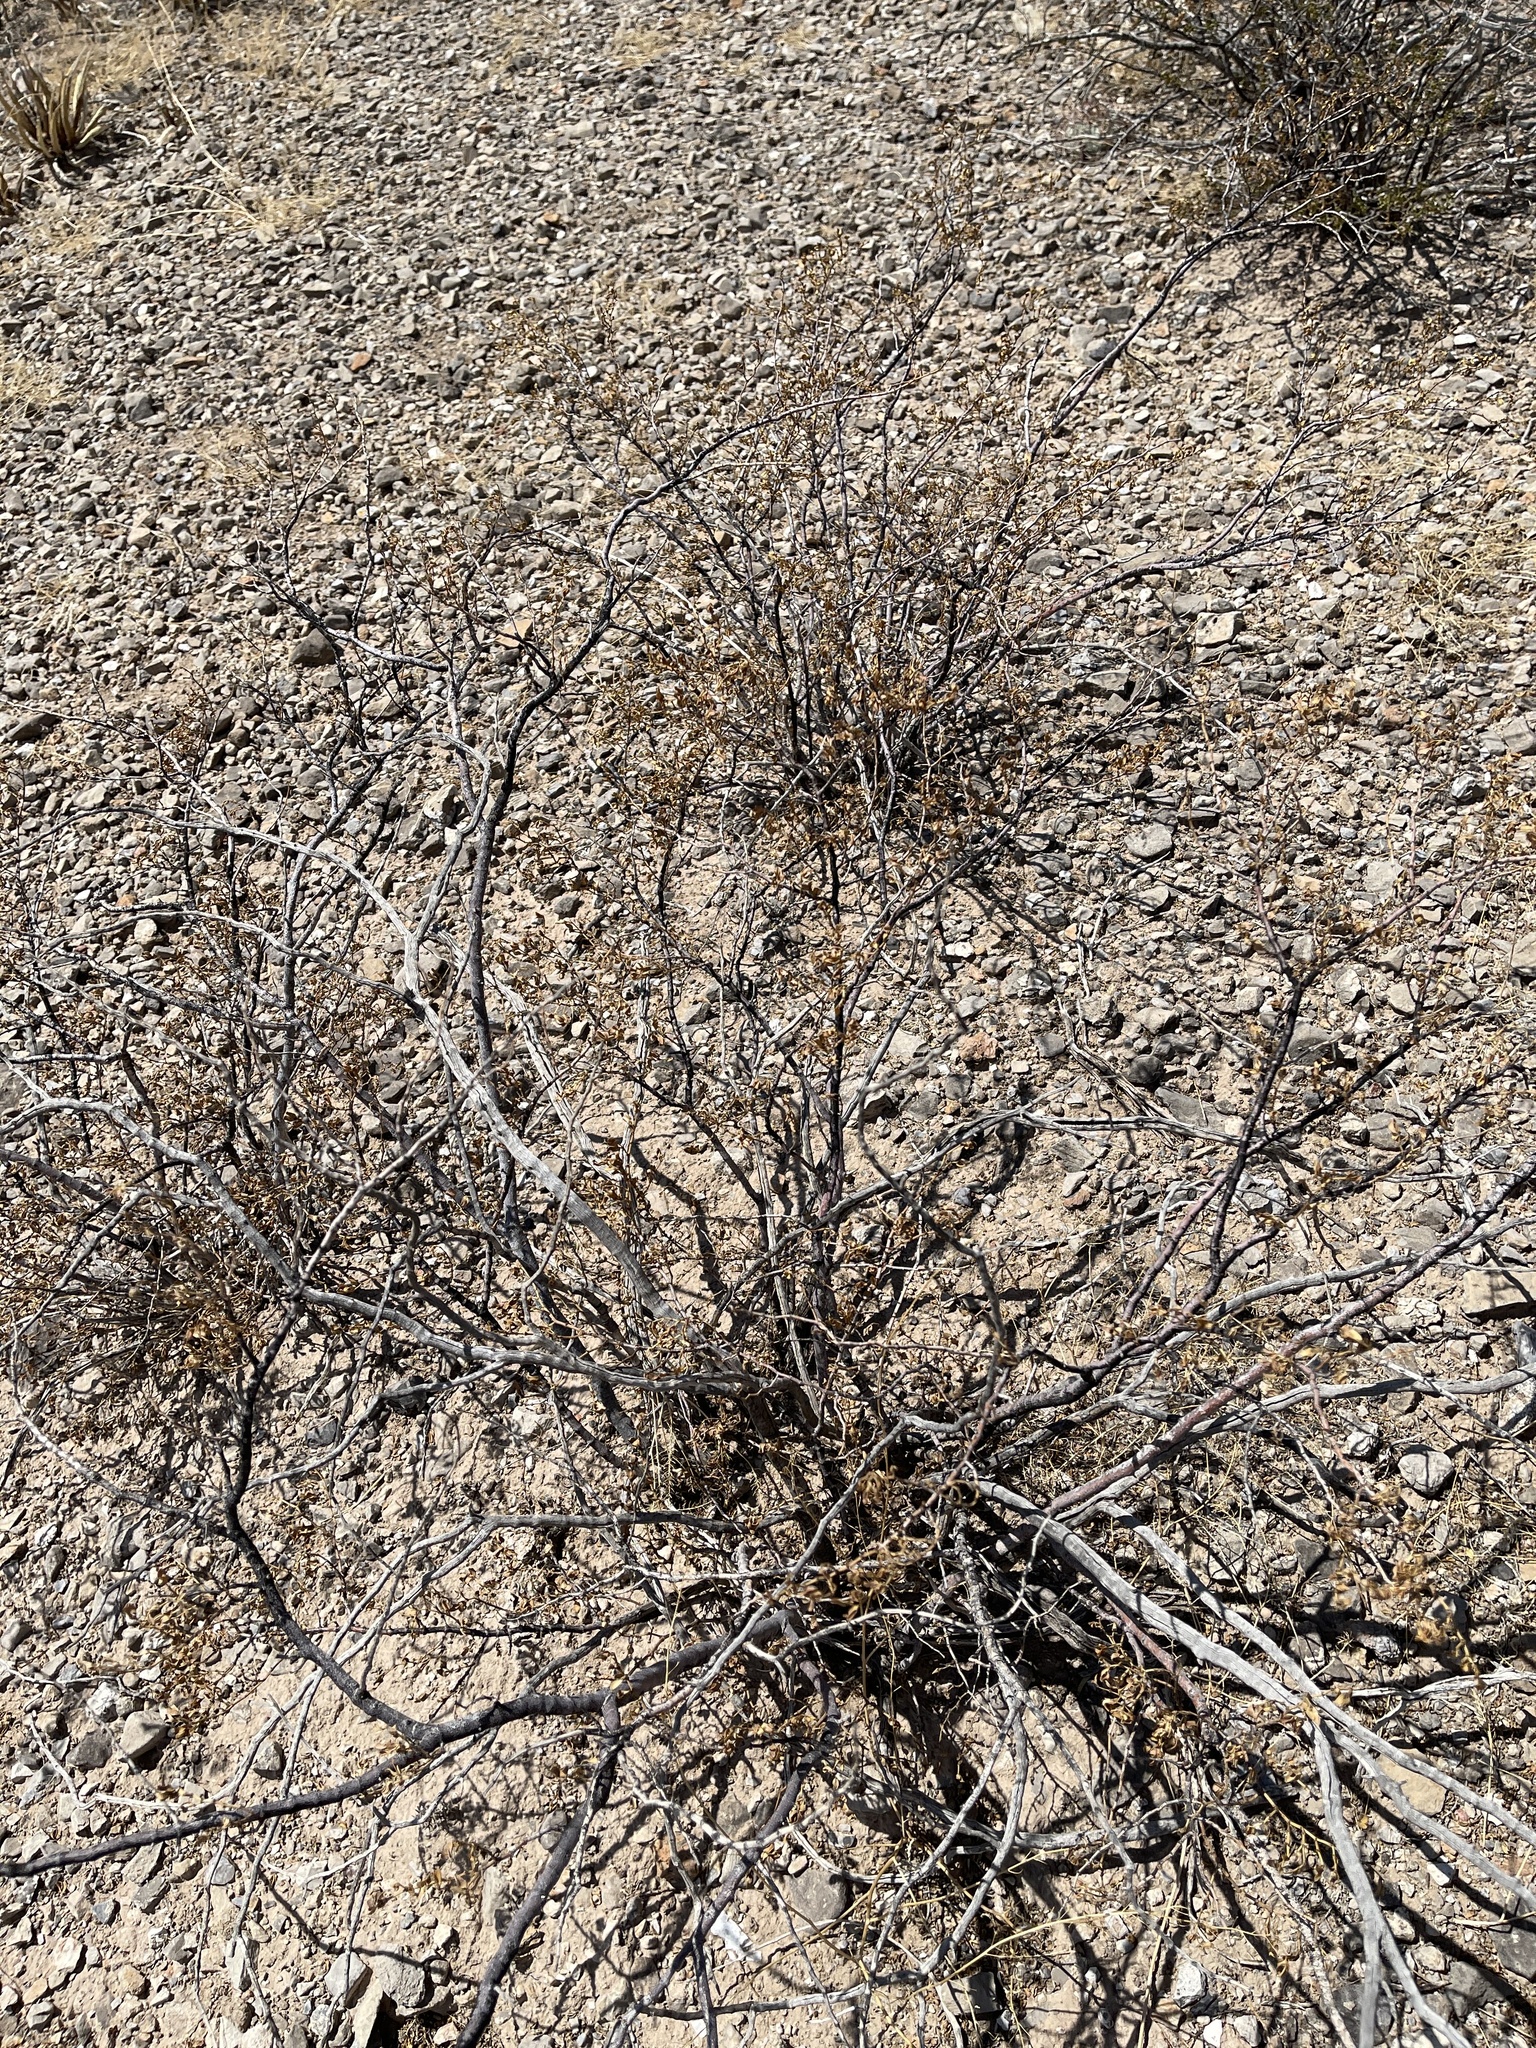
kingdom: Plantae
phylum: Tracheophyta
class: Magnoliopsida
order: Zygophyllales
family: Zygophyllaceae
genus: Larrea
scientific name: Larrea tridentata
